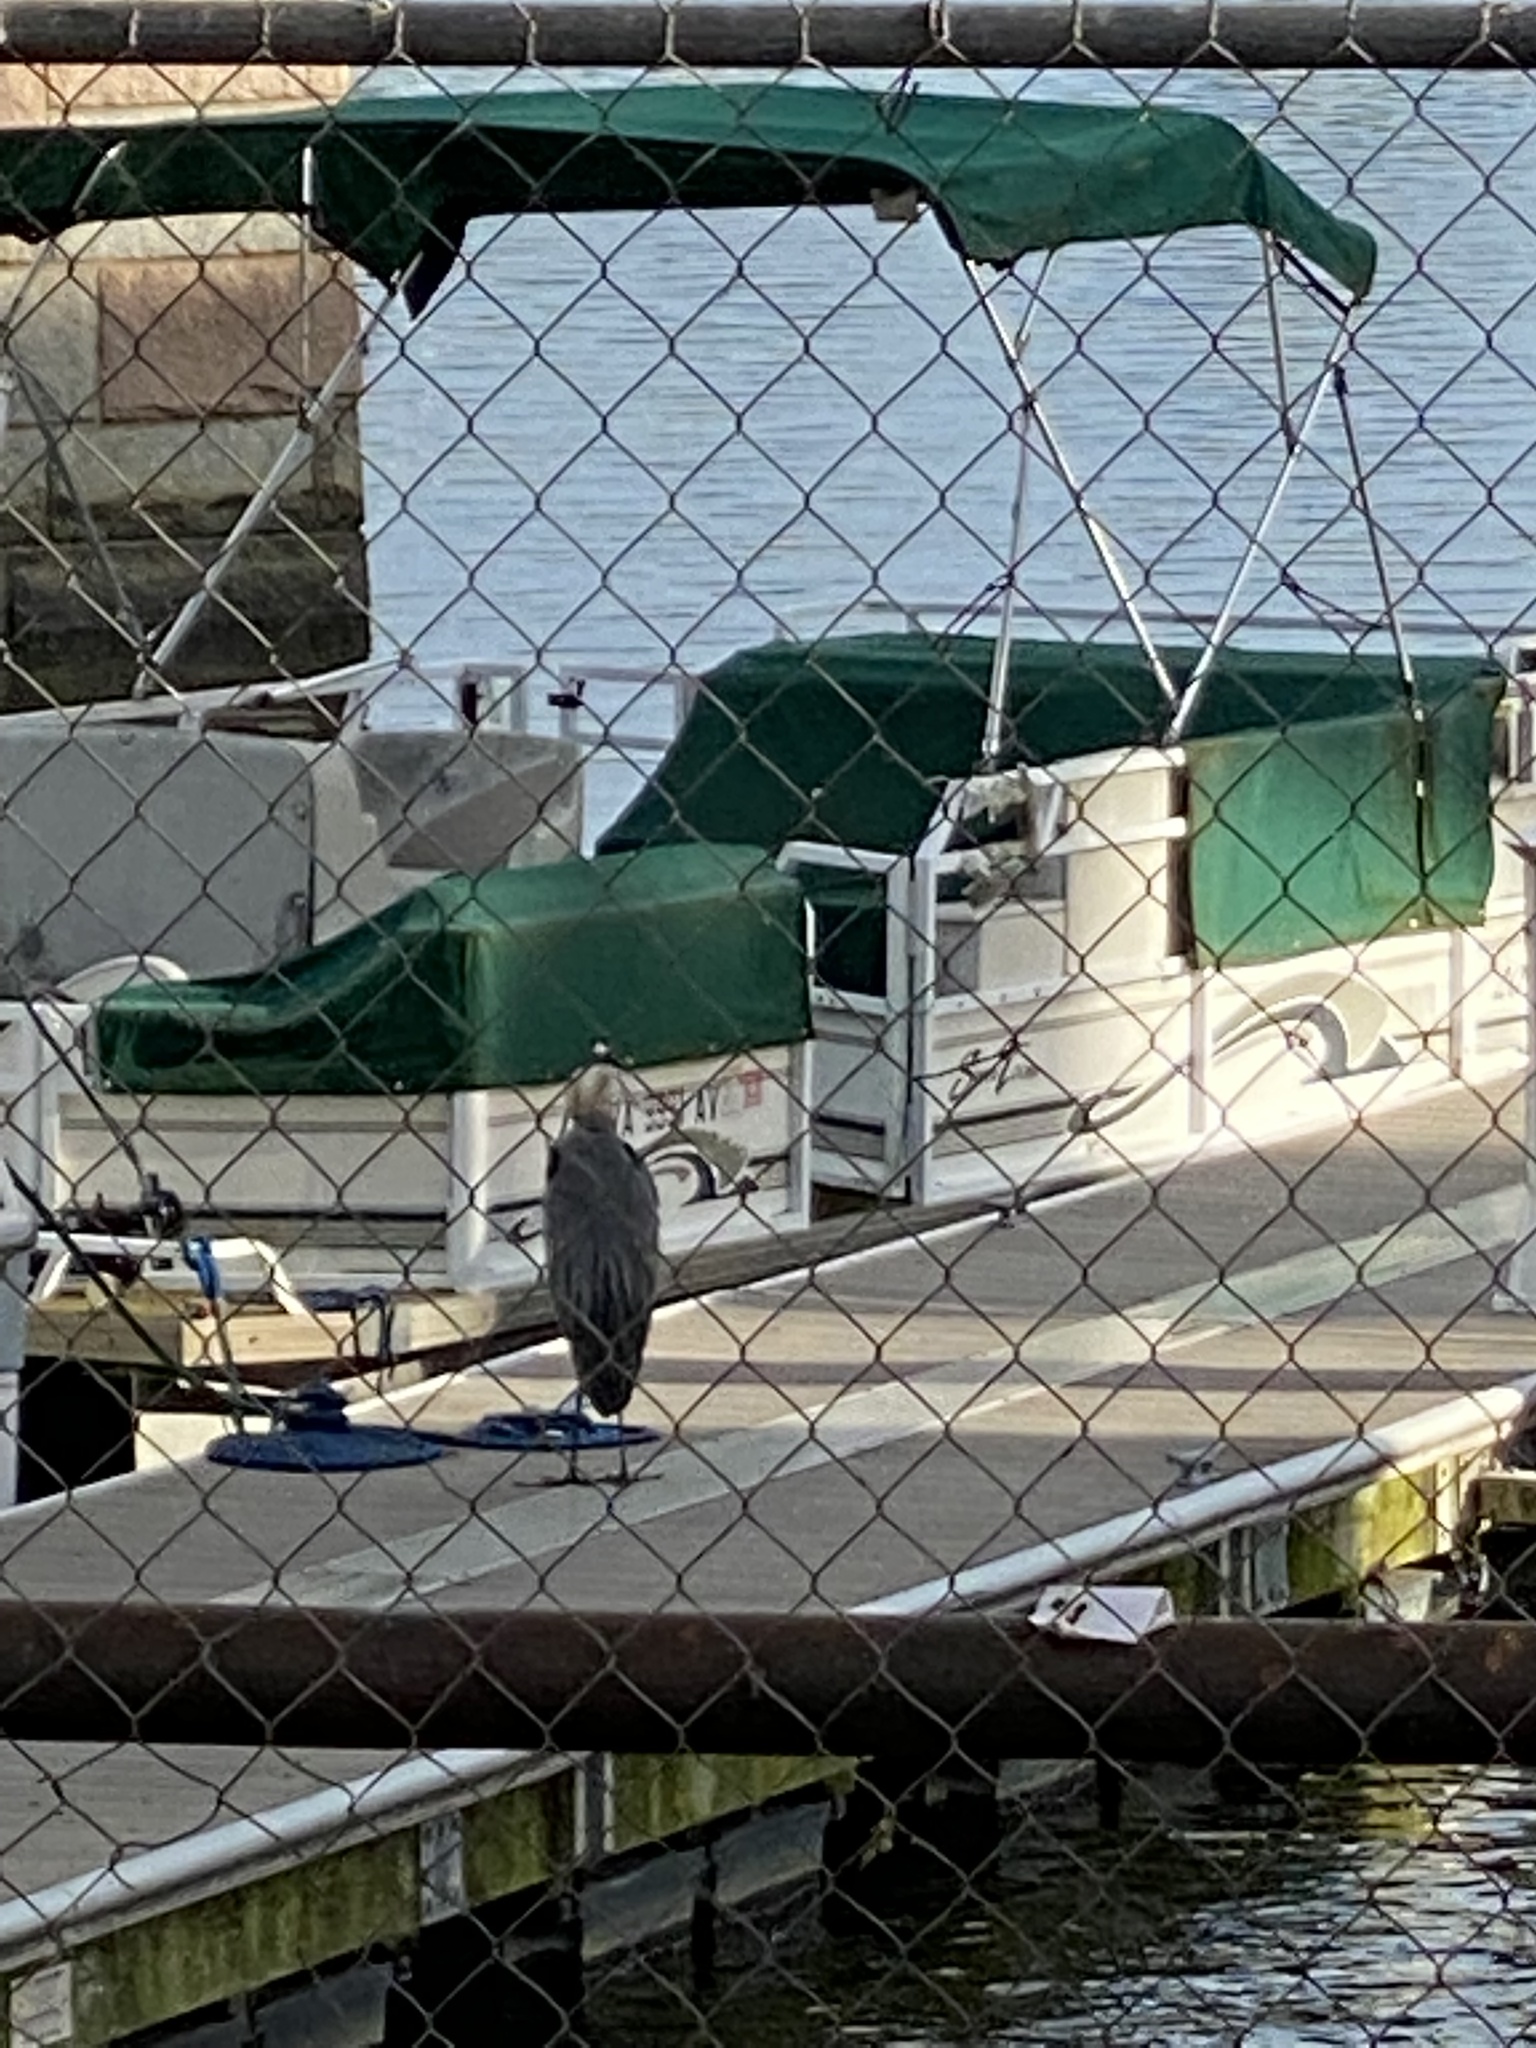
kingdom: Animalia
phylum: Chordata
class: Aves
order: Pelecaniformes
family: Ardeidae
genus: Ardea
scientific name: Ardea herodias
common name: Great blue heron
